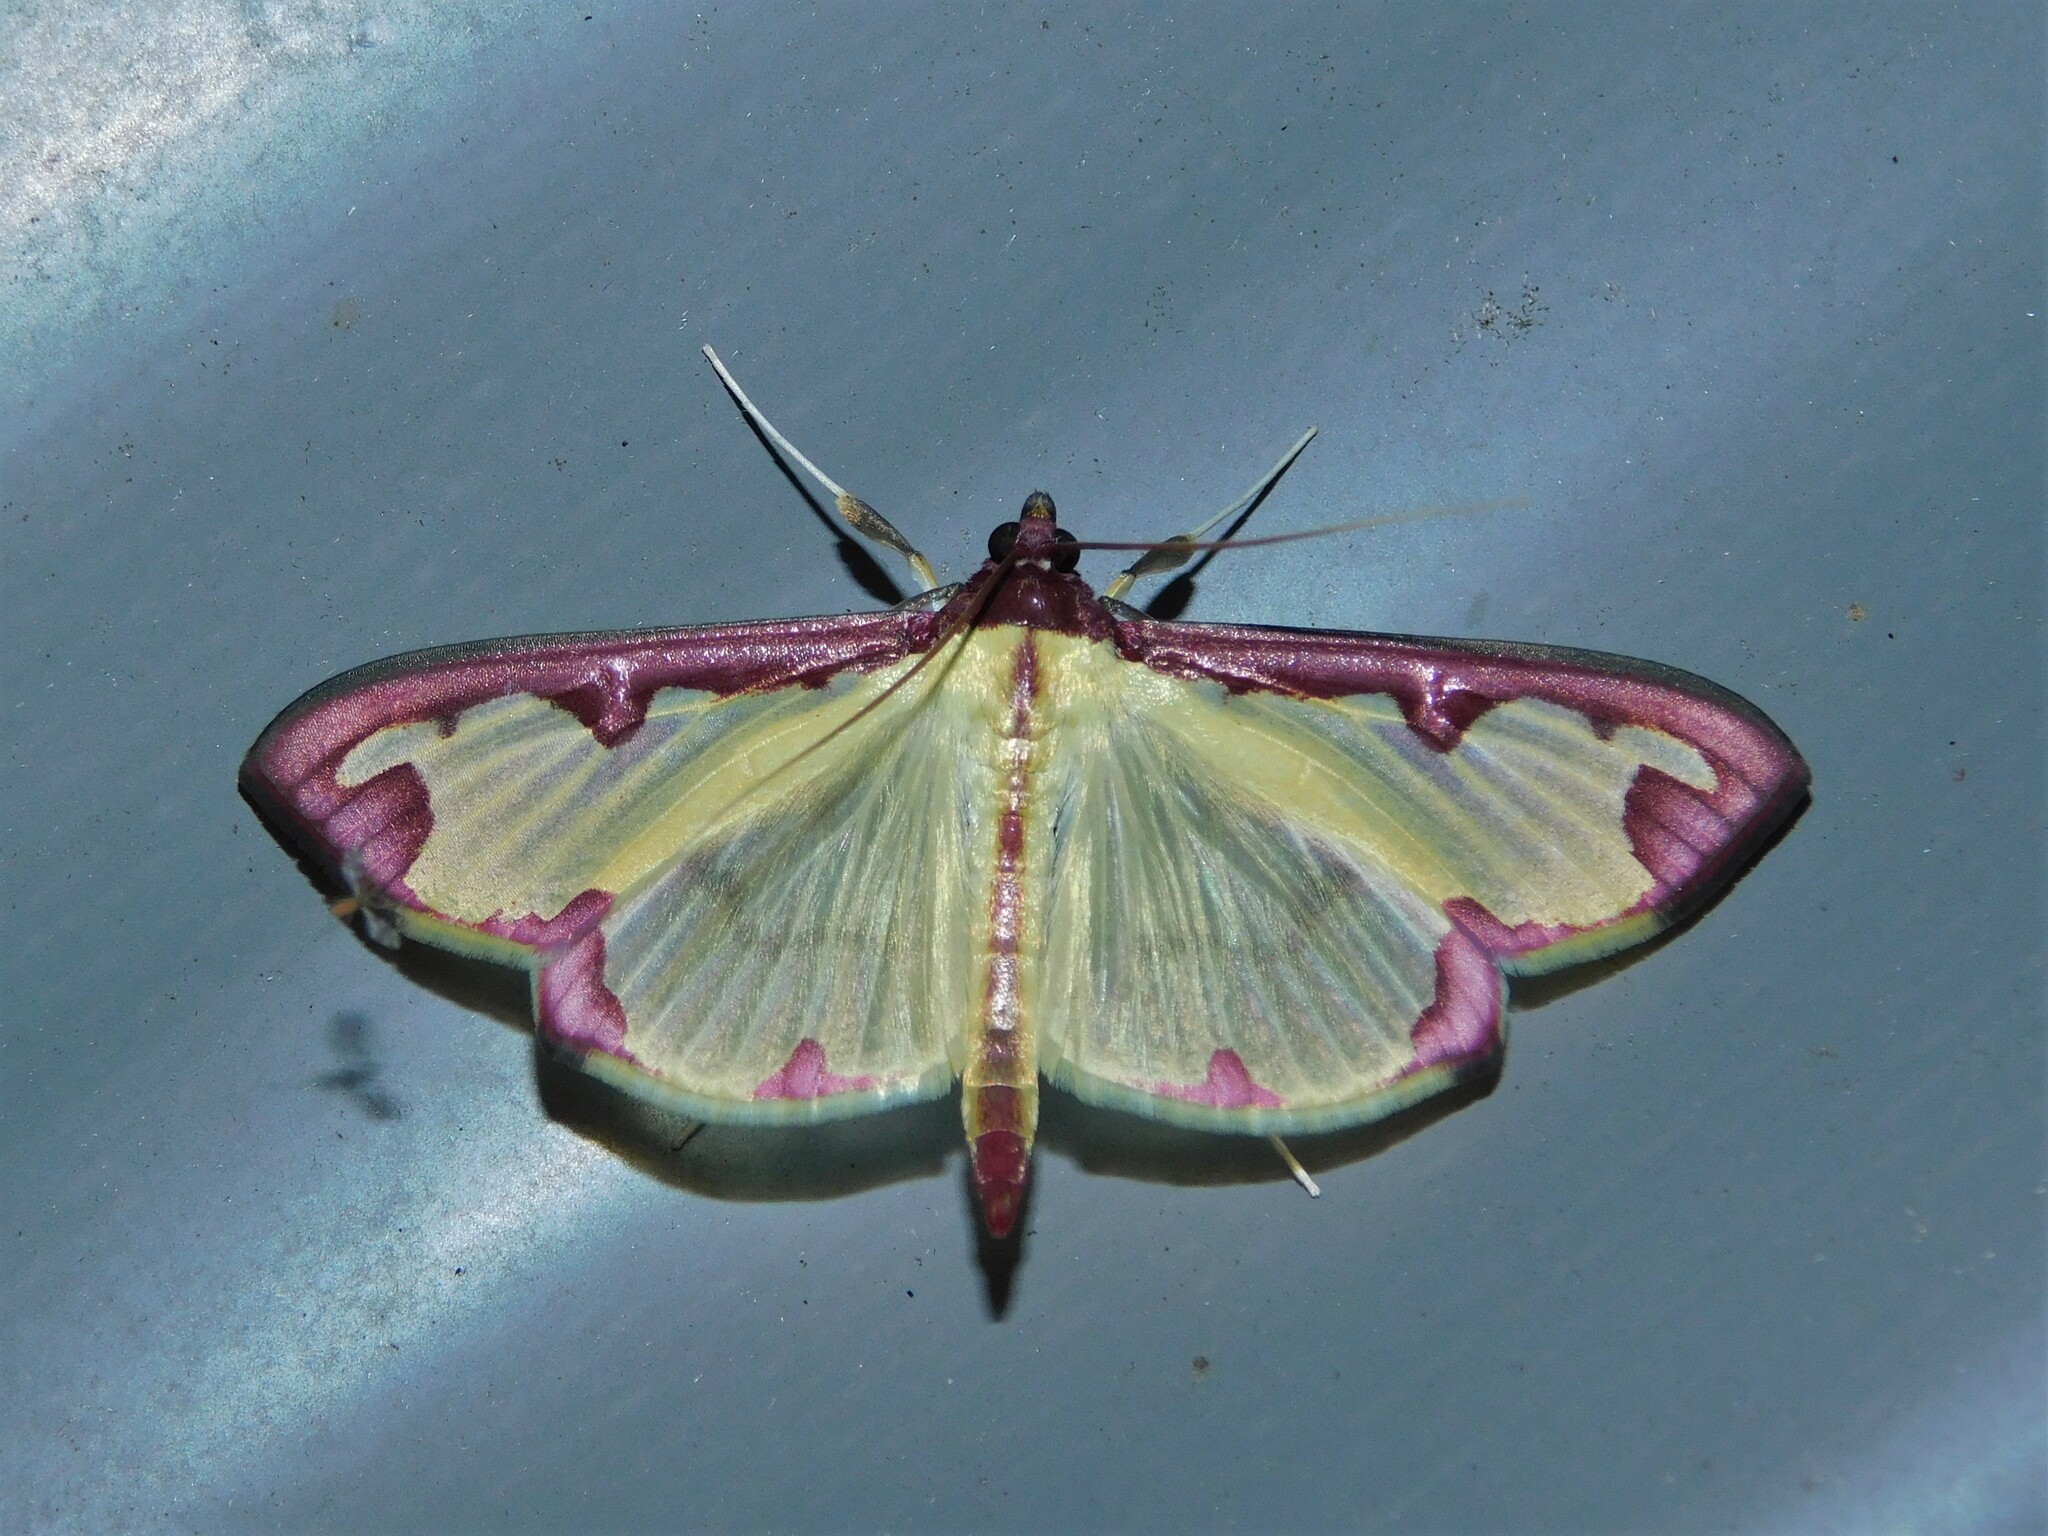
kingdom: Animalia
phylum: Arthropoda
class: Insecta
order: Lepidoptera
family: Crambidae
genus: Cadarena
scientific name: Cadarena pudoraria
